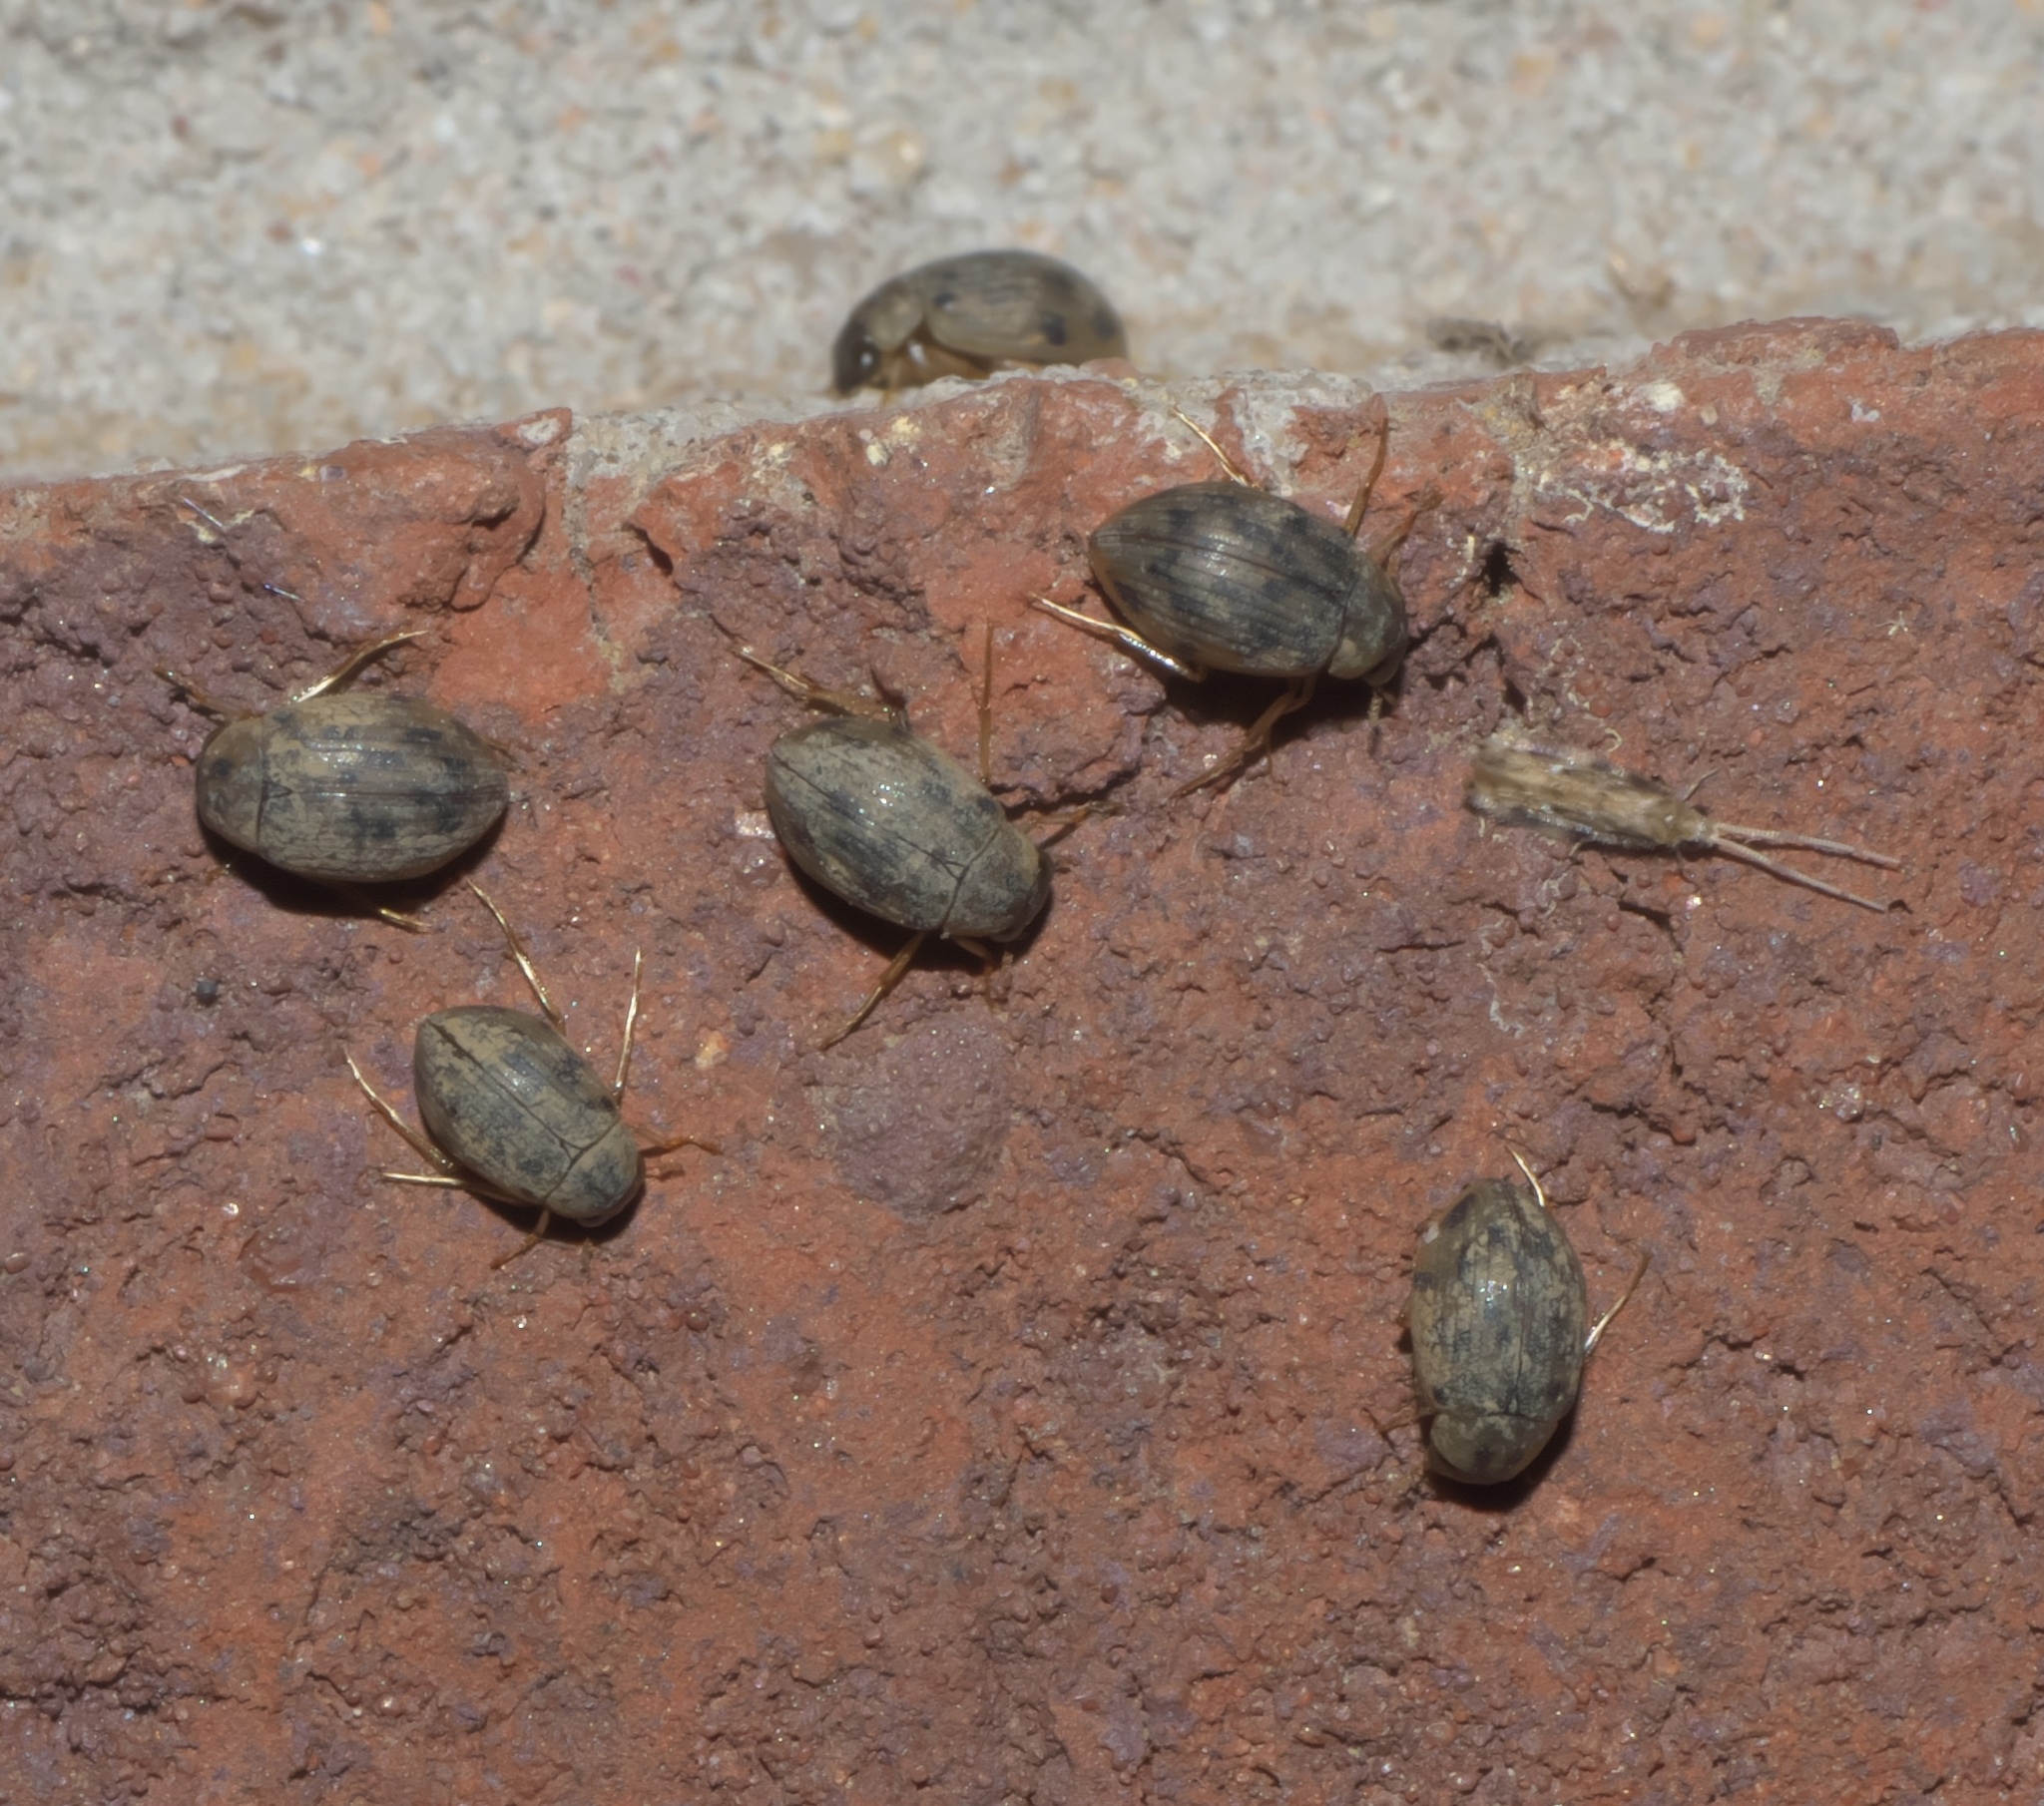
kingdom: Animalia
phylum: Arthropoda
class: Insecta
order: Coleoptera
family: Hydrophilidae
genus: Berosus
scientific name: Berosus pantherinus
